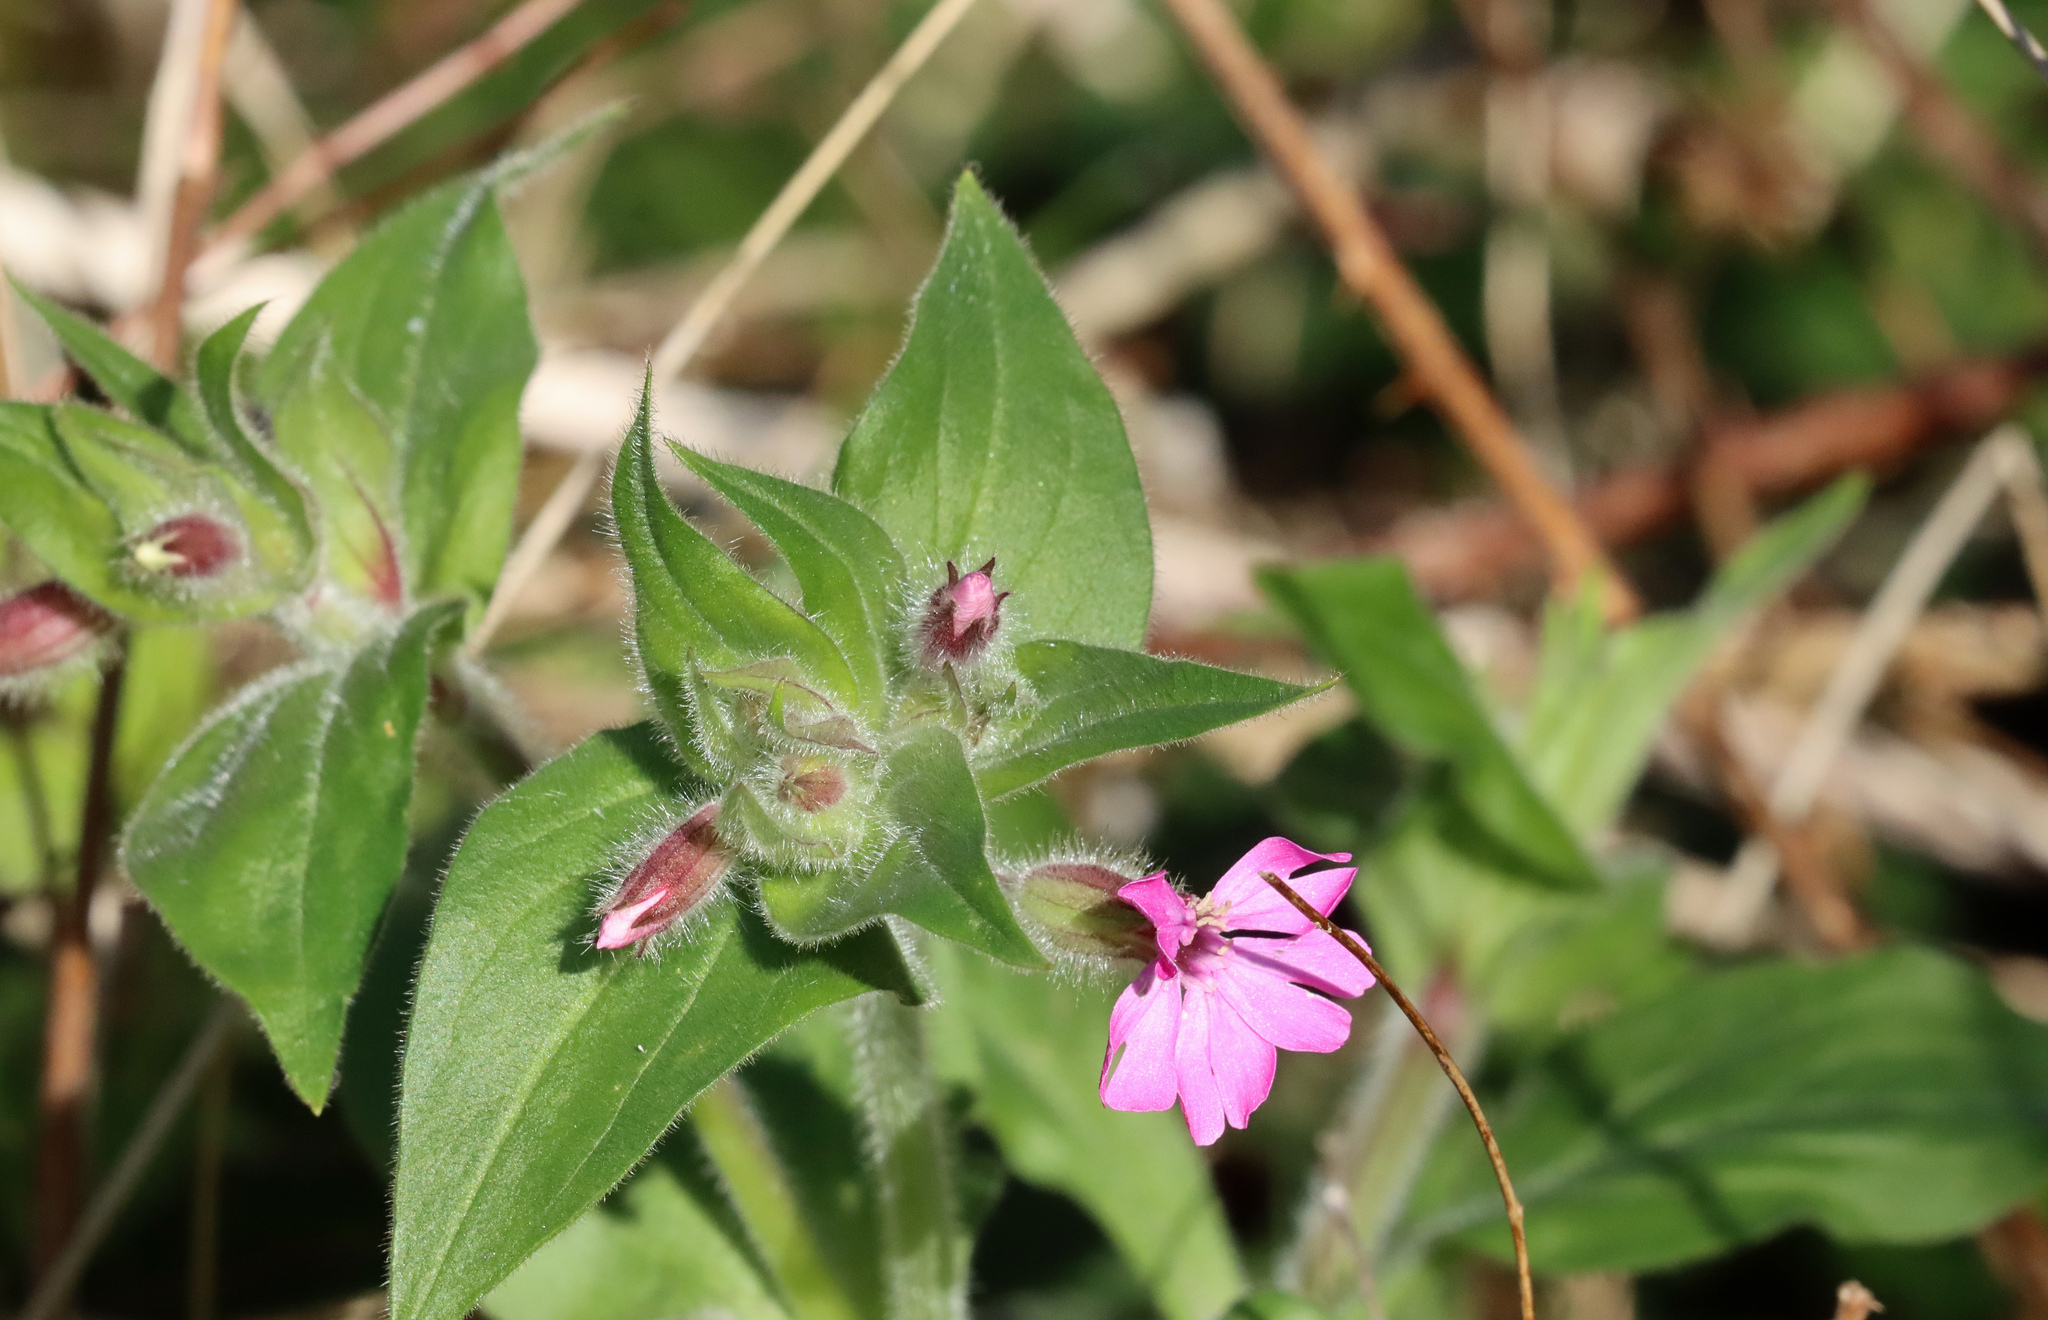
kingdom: Plantae
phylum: Tracheophyta
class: Magnoliopsida
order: Caryophyllales
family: Caryophyllaceae
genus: Silene
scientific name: Silene dioica
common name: Red campion
